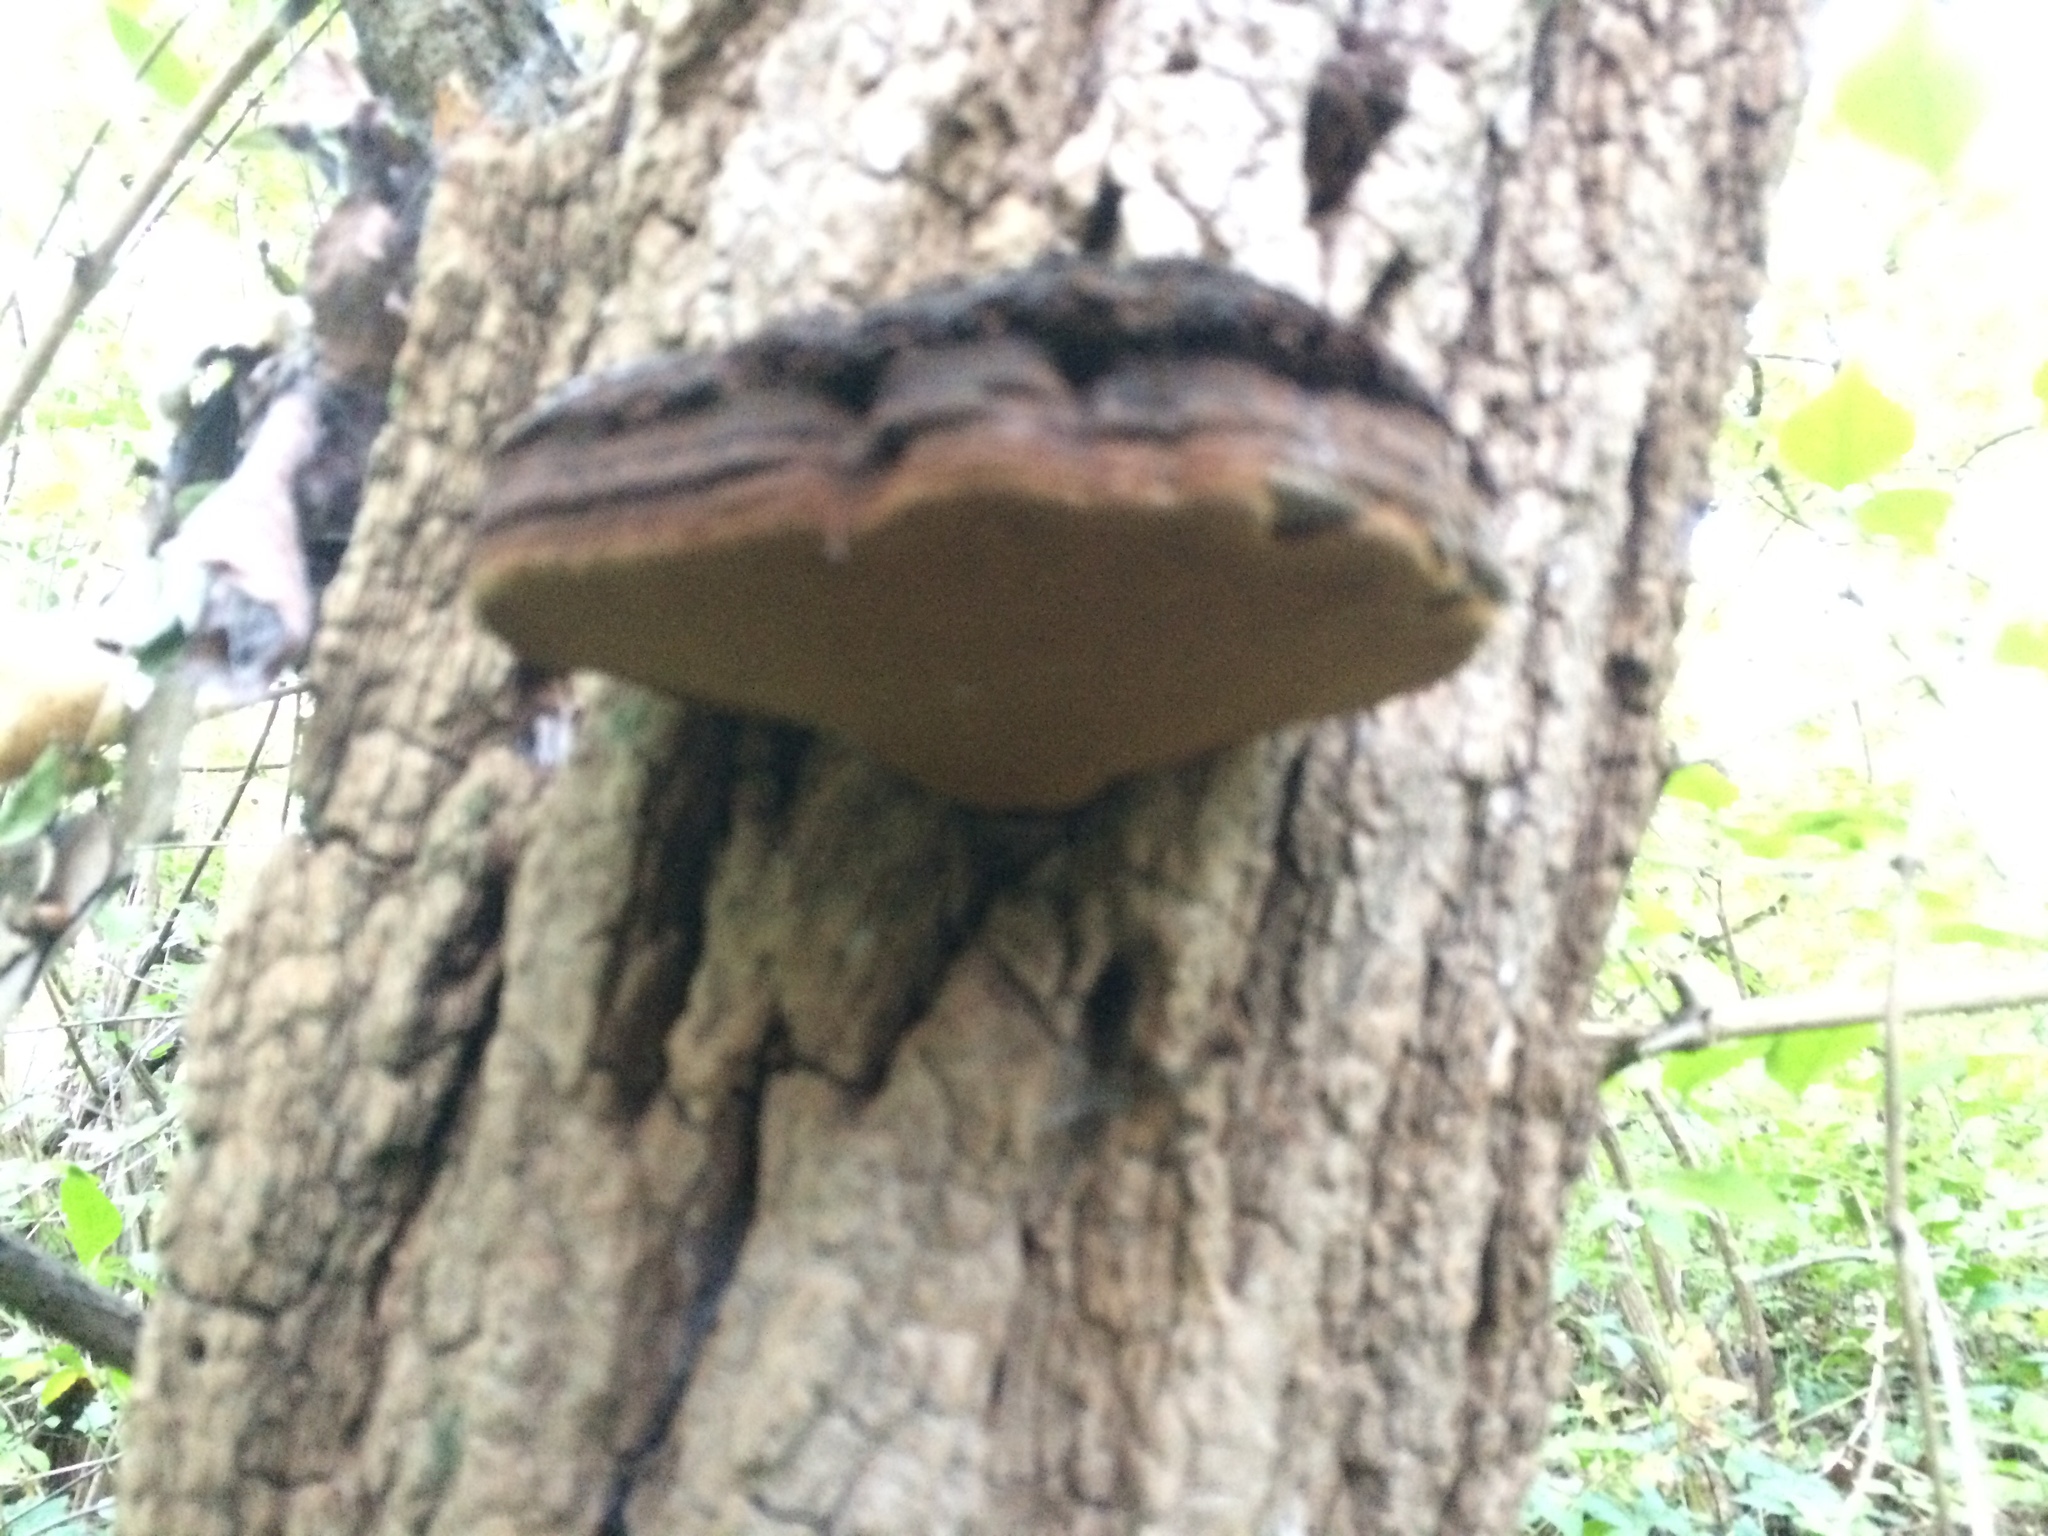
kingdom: Fungi
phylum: Basidiomycota
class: Agaricomycetes
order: Hymenochaetales
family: Hymenochaetaceae
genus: Phellinus
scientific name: Phellinus robiniae
